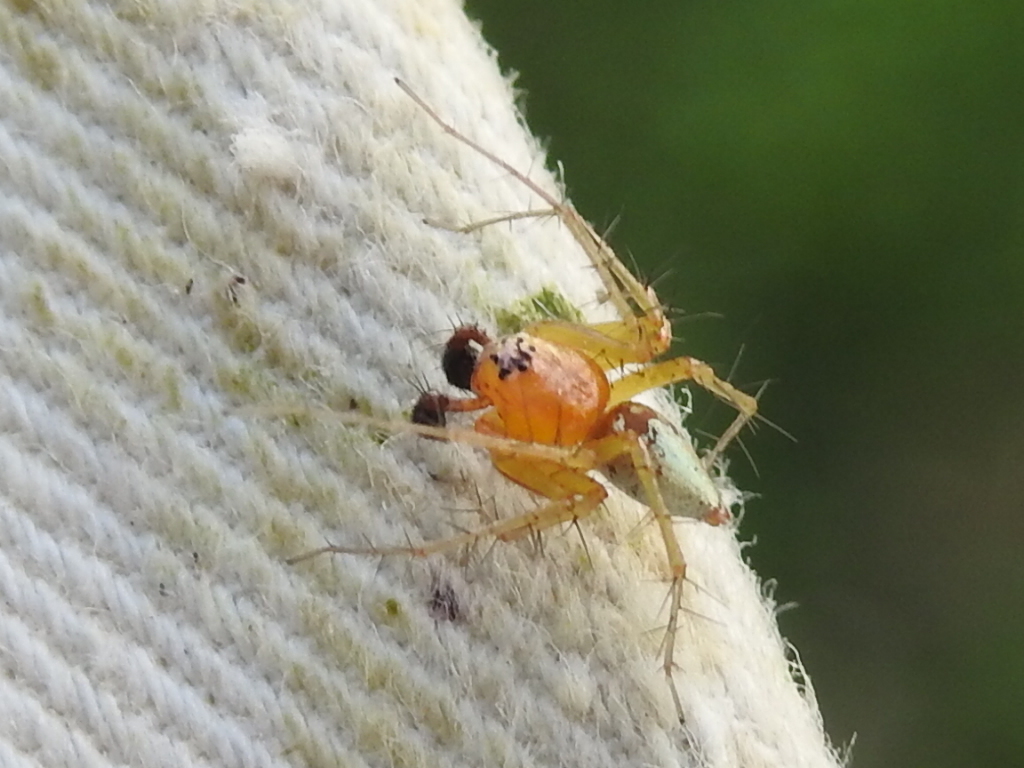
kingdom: Animalia
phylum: Arthropoda
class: Arachnida
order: Araneae
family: Oxyopidae
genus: Oxyopes
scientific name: Oxyopes salticus
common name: Lynx spiders
